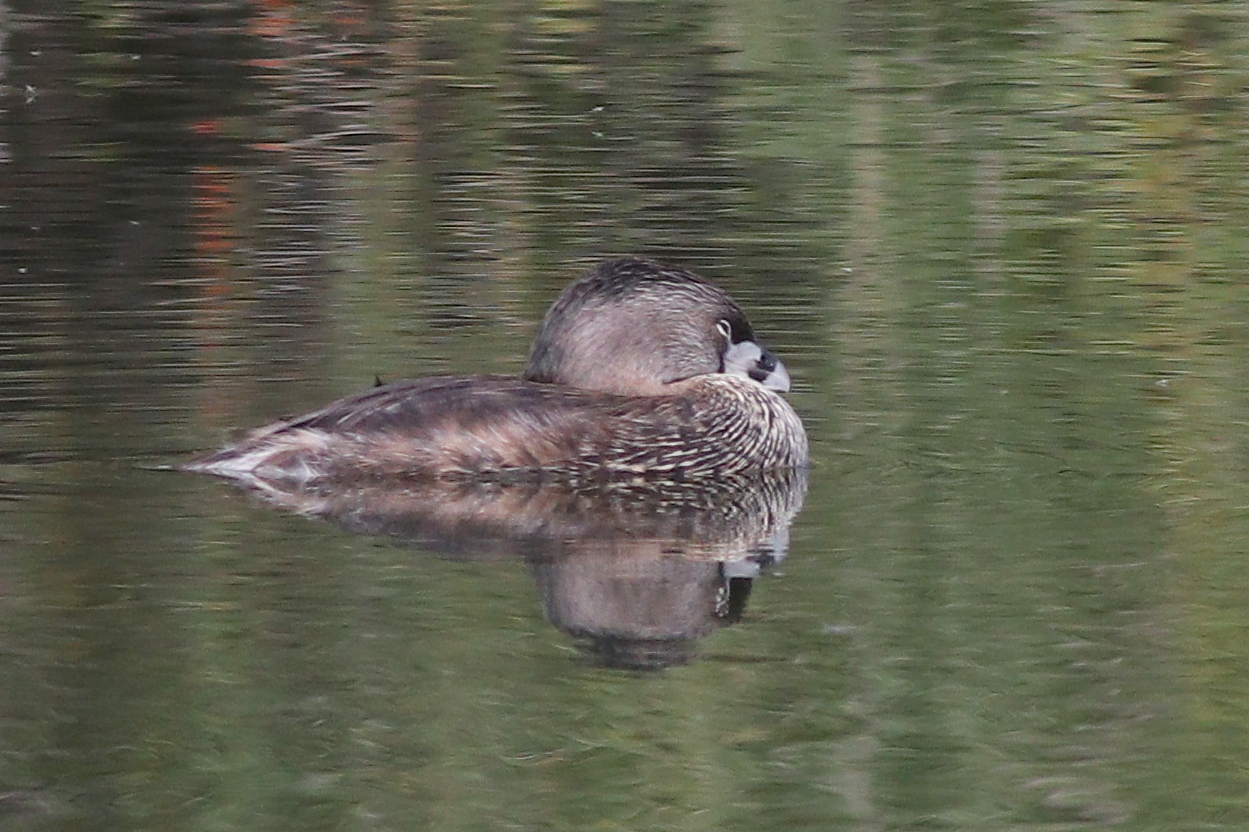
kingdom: Animalia
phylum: Chordata
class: Aves
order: Podicipediformes
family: Podicipedidae
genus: Podilymbus
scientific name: Podilymbus podiceps
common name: Pied-billed grebe
